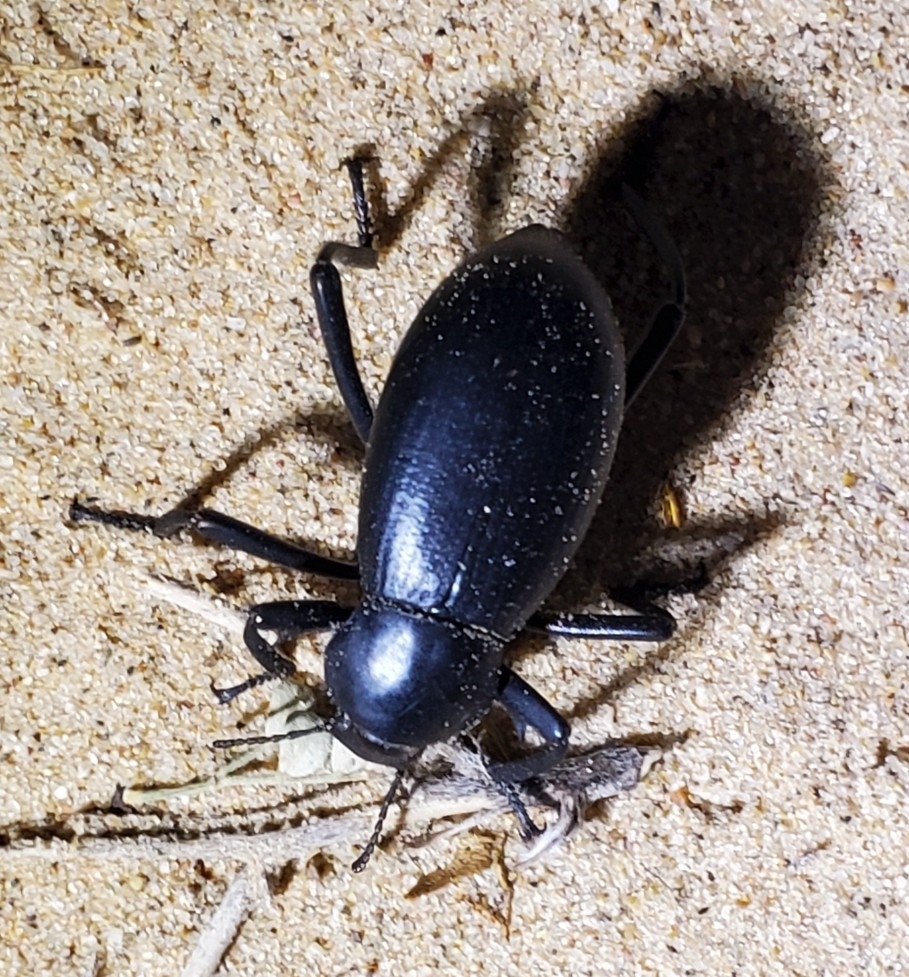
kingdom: Animalia
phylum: Arthropoda
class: Insecta
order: Coleoptera
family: Tenebrionidae
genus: Eleodes
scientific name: Eleodes armata
